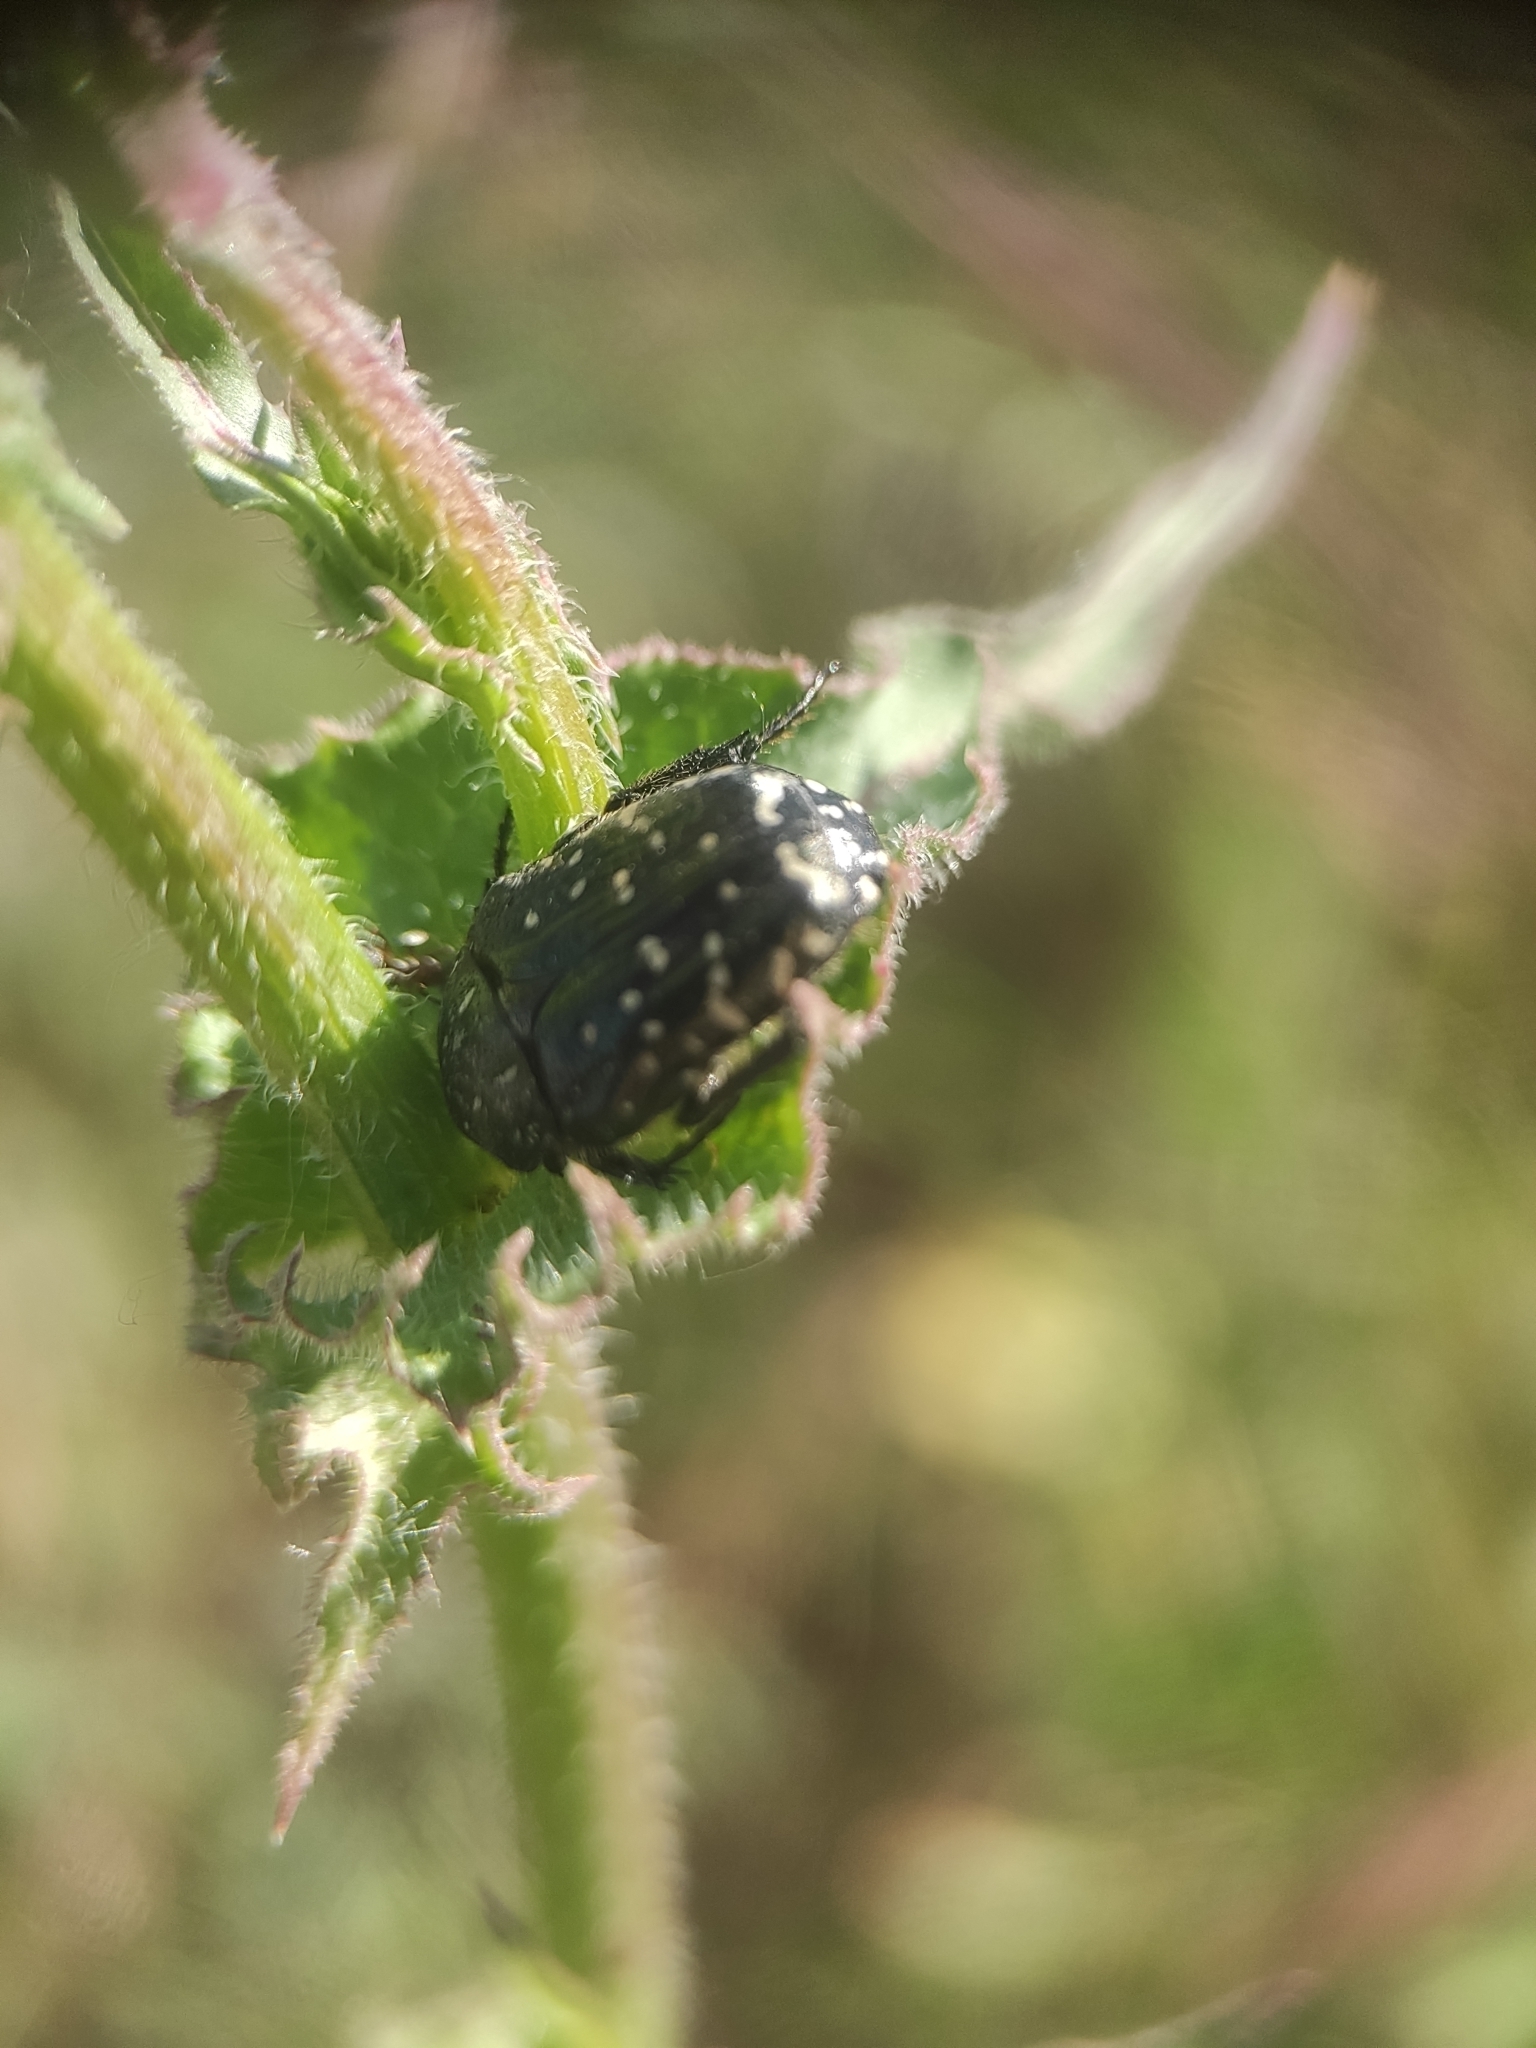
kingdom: Animalia
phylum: Arthropoda
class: Insecta
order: Coleoptera
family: Scarabaeidae
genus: Oxythyrea
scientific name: Oxythyrea funesta
